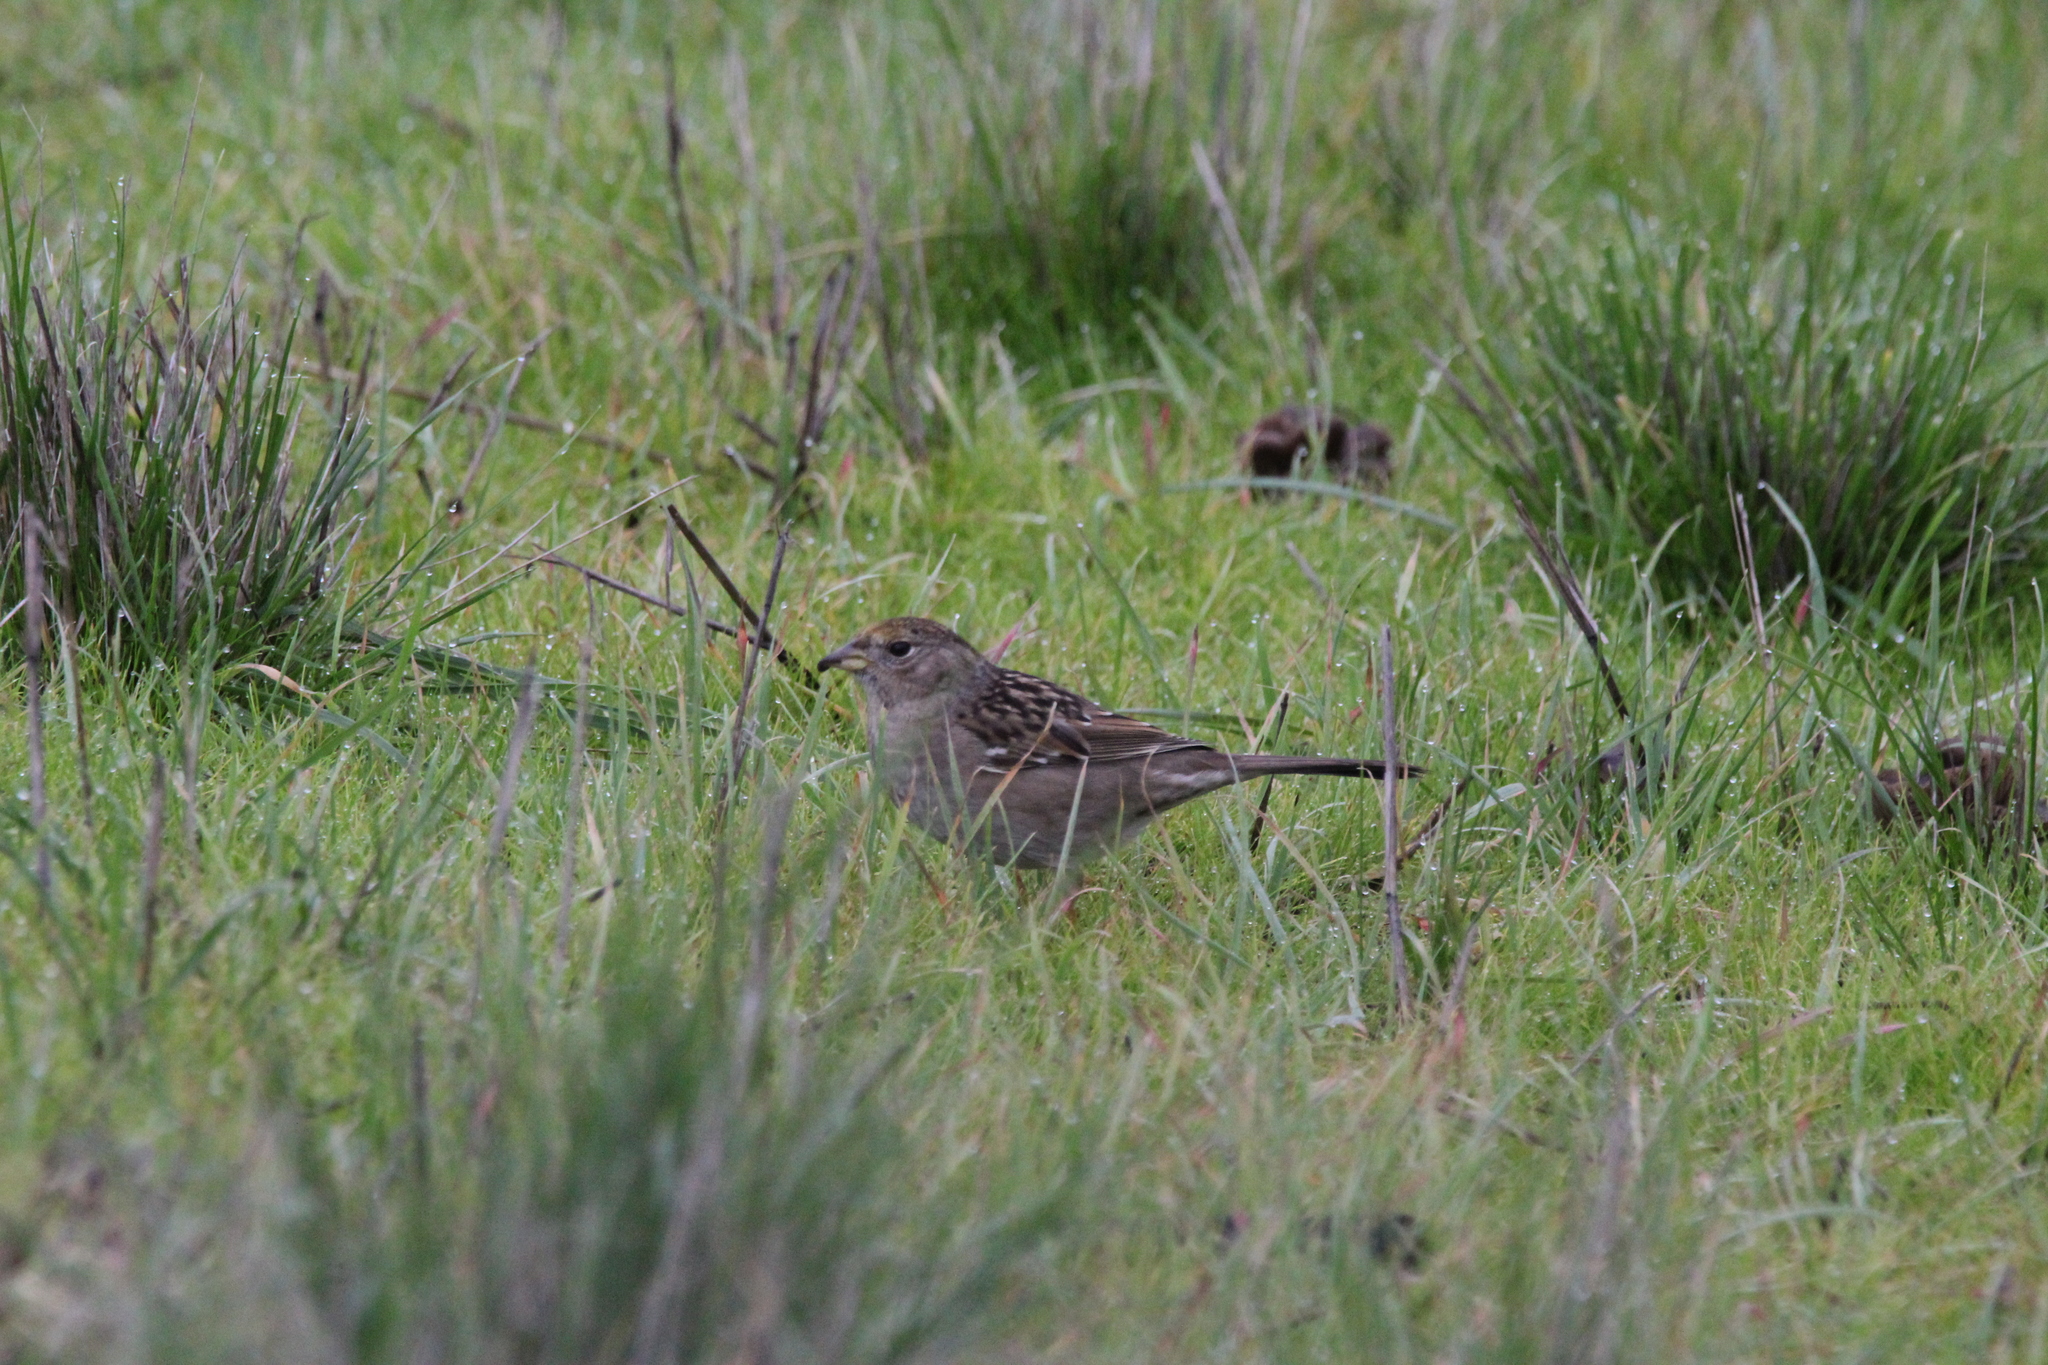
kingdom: Animalia
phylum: Chordata
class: Aves
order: Passeriformes
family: Passerellidae
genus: Zonotrichia
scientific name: Zonotrichia atricapilla
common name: Golden-crowned sparrow
